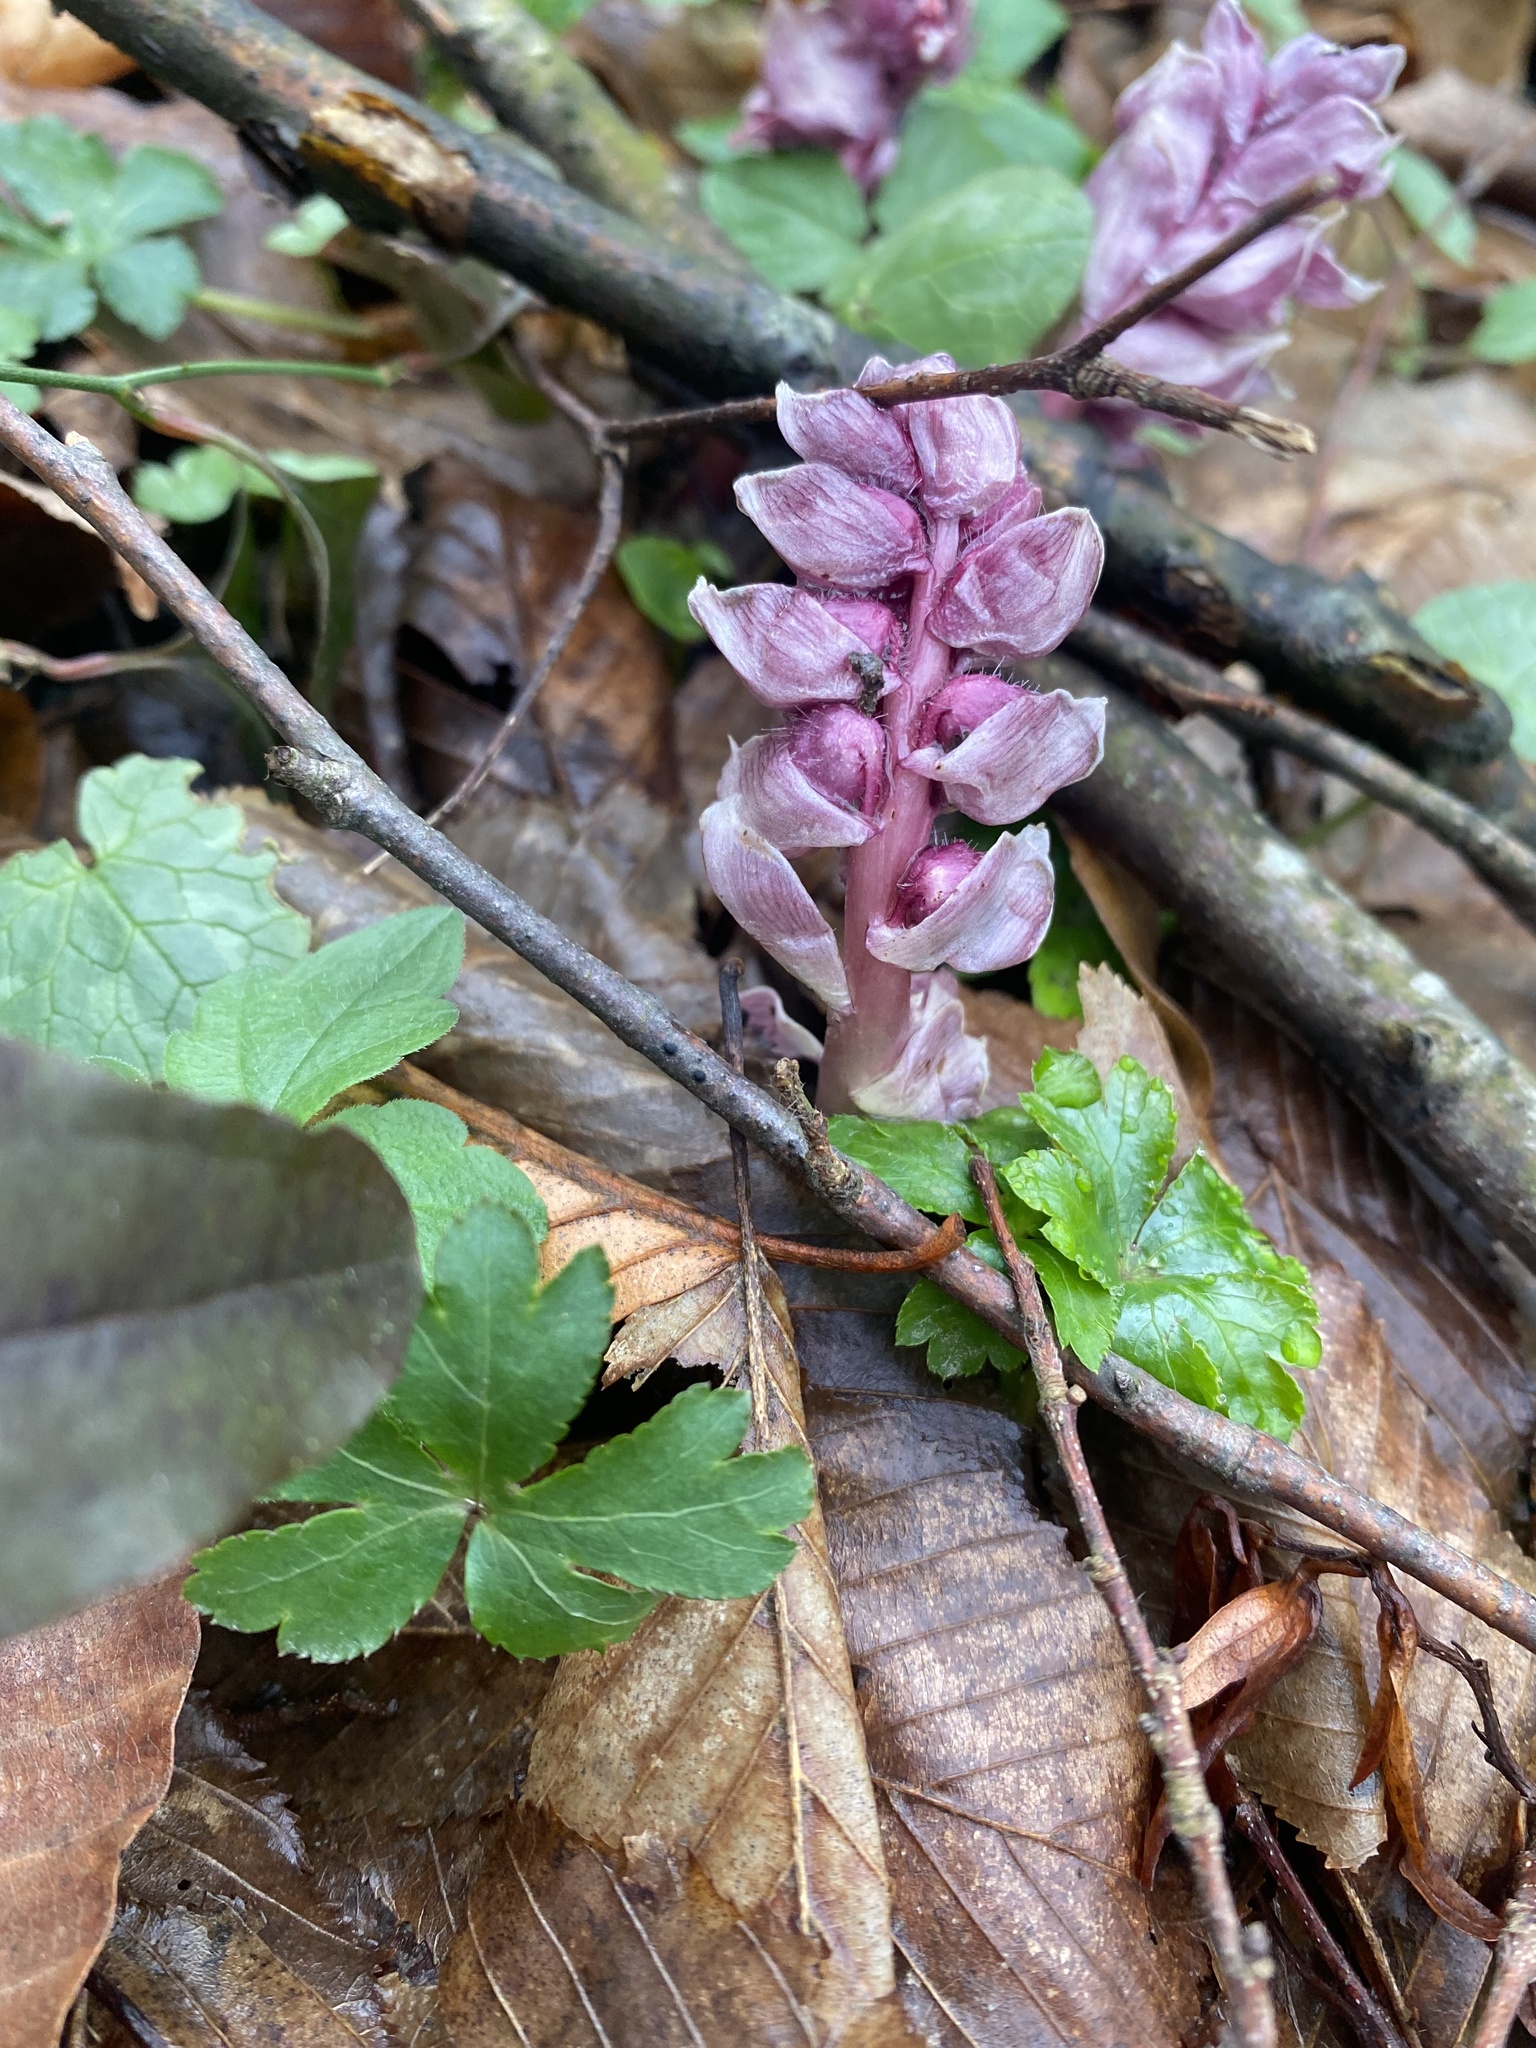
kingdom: Plantae
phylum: Tracheophyta
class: Magnoliopsida
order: Lamiales
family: Orobanchaceae
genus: Lathraea
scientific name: Lathraea squamaria
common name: Toothwort
